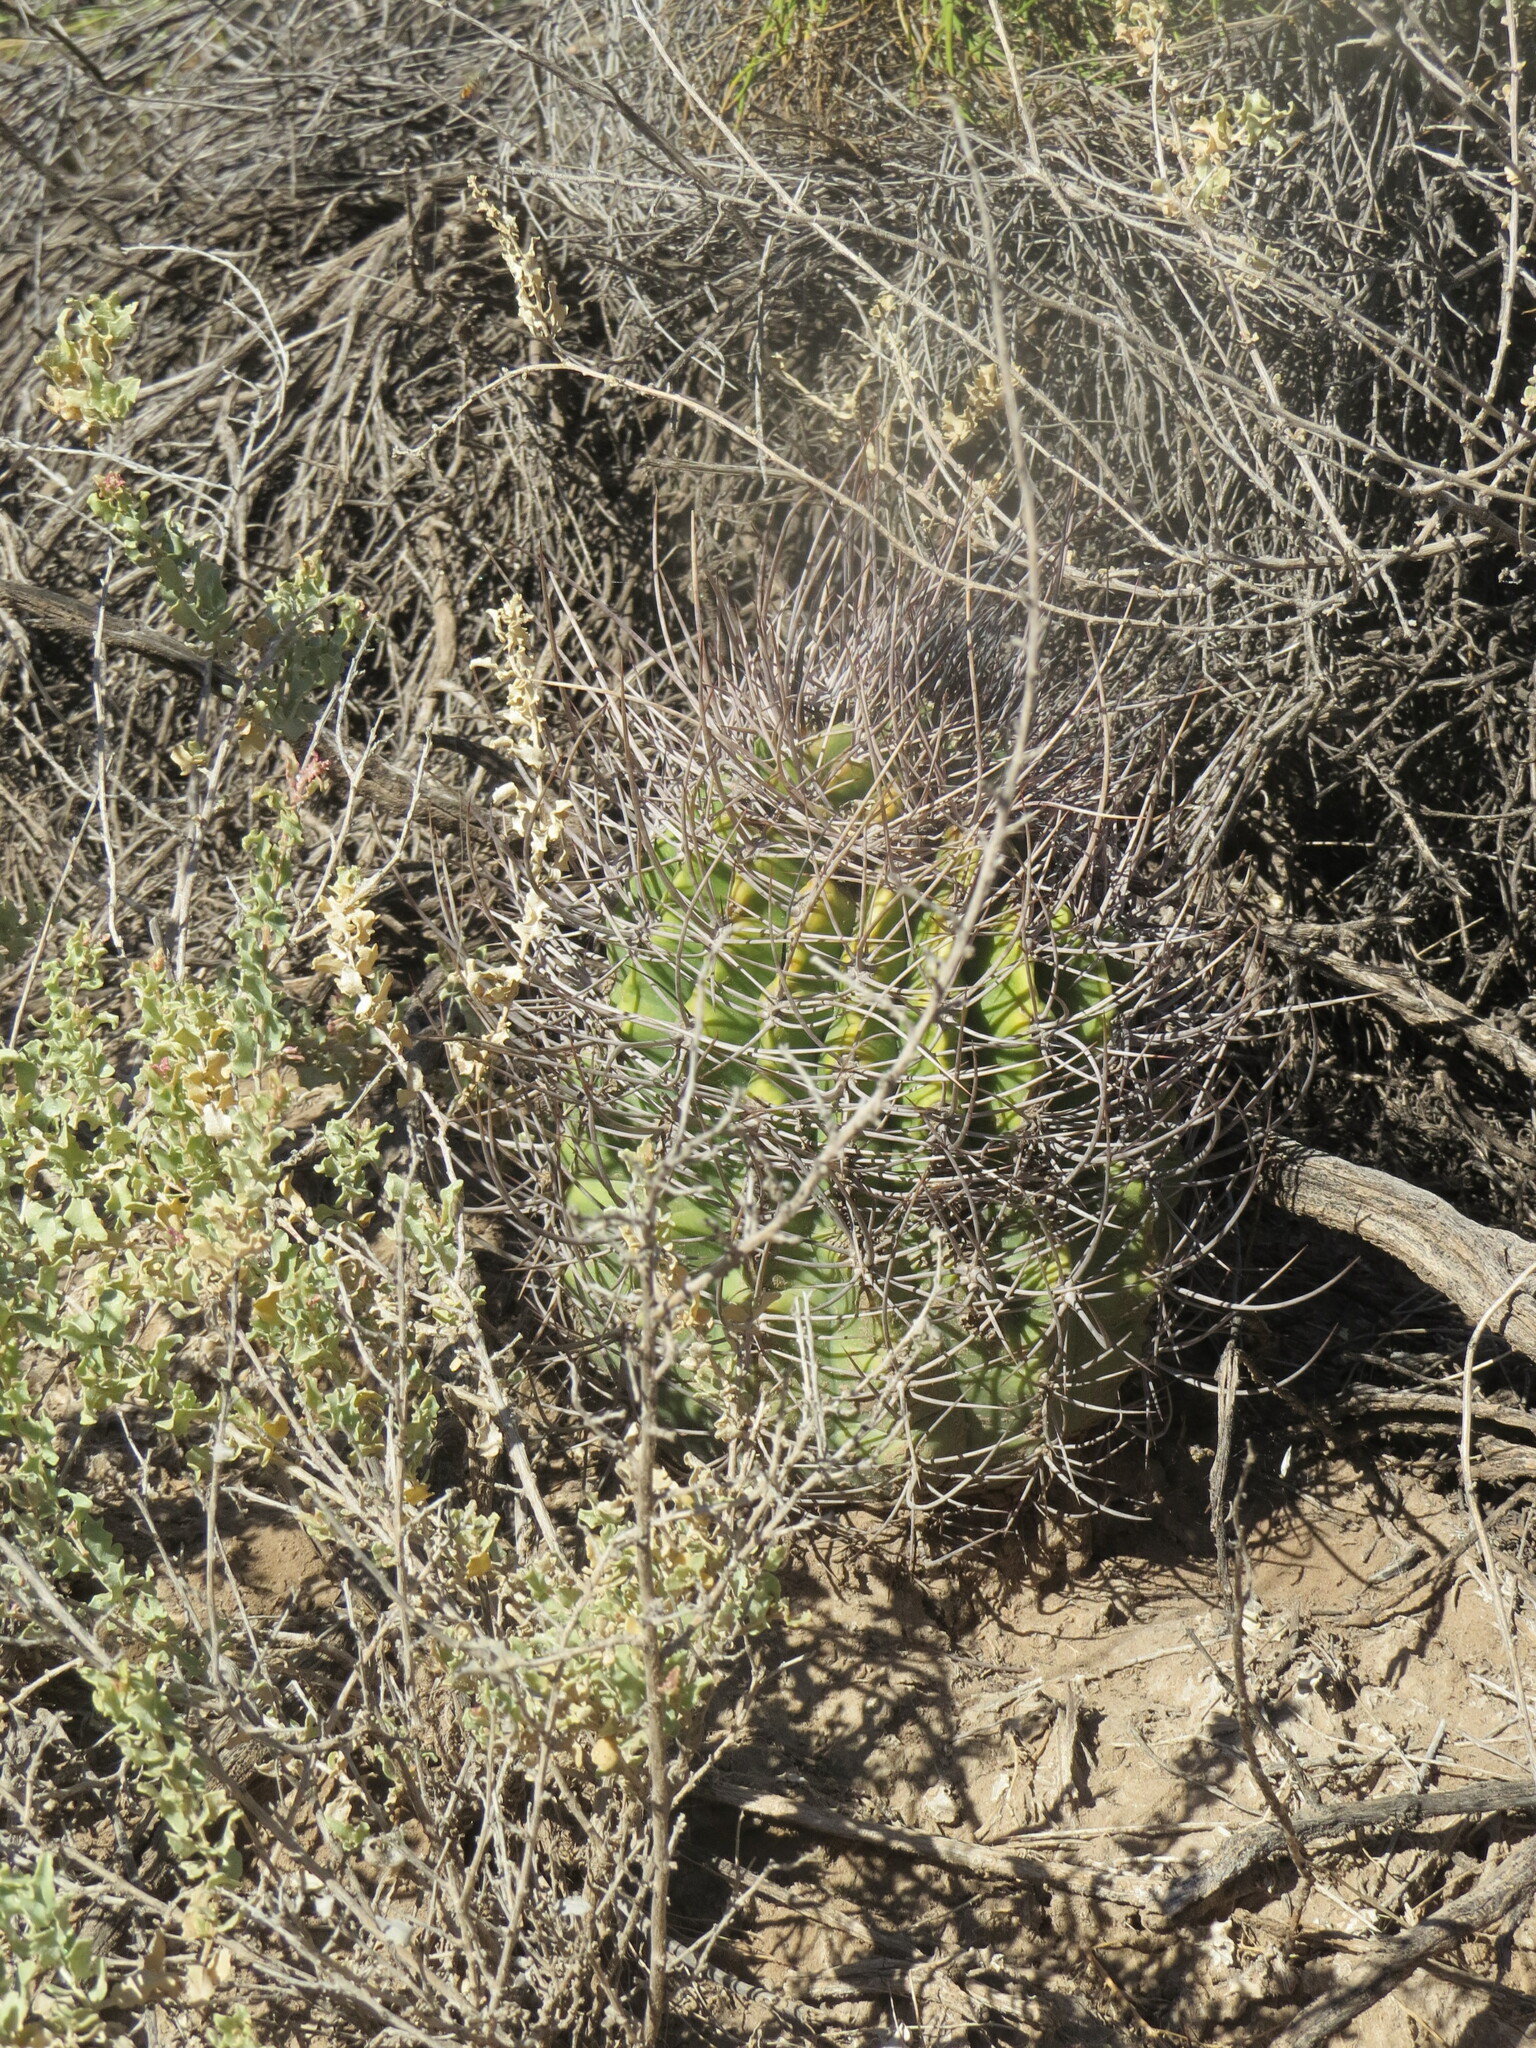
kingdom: Plantae
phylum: Tracheophyta
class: Magnoliopsida
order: Caryophyllales
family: Cactaceae
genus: Acanthocalycium
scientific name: Acanthocalycium leucanthum
